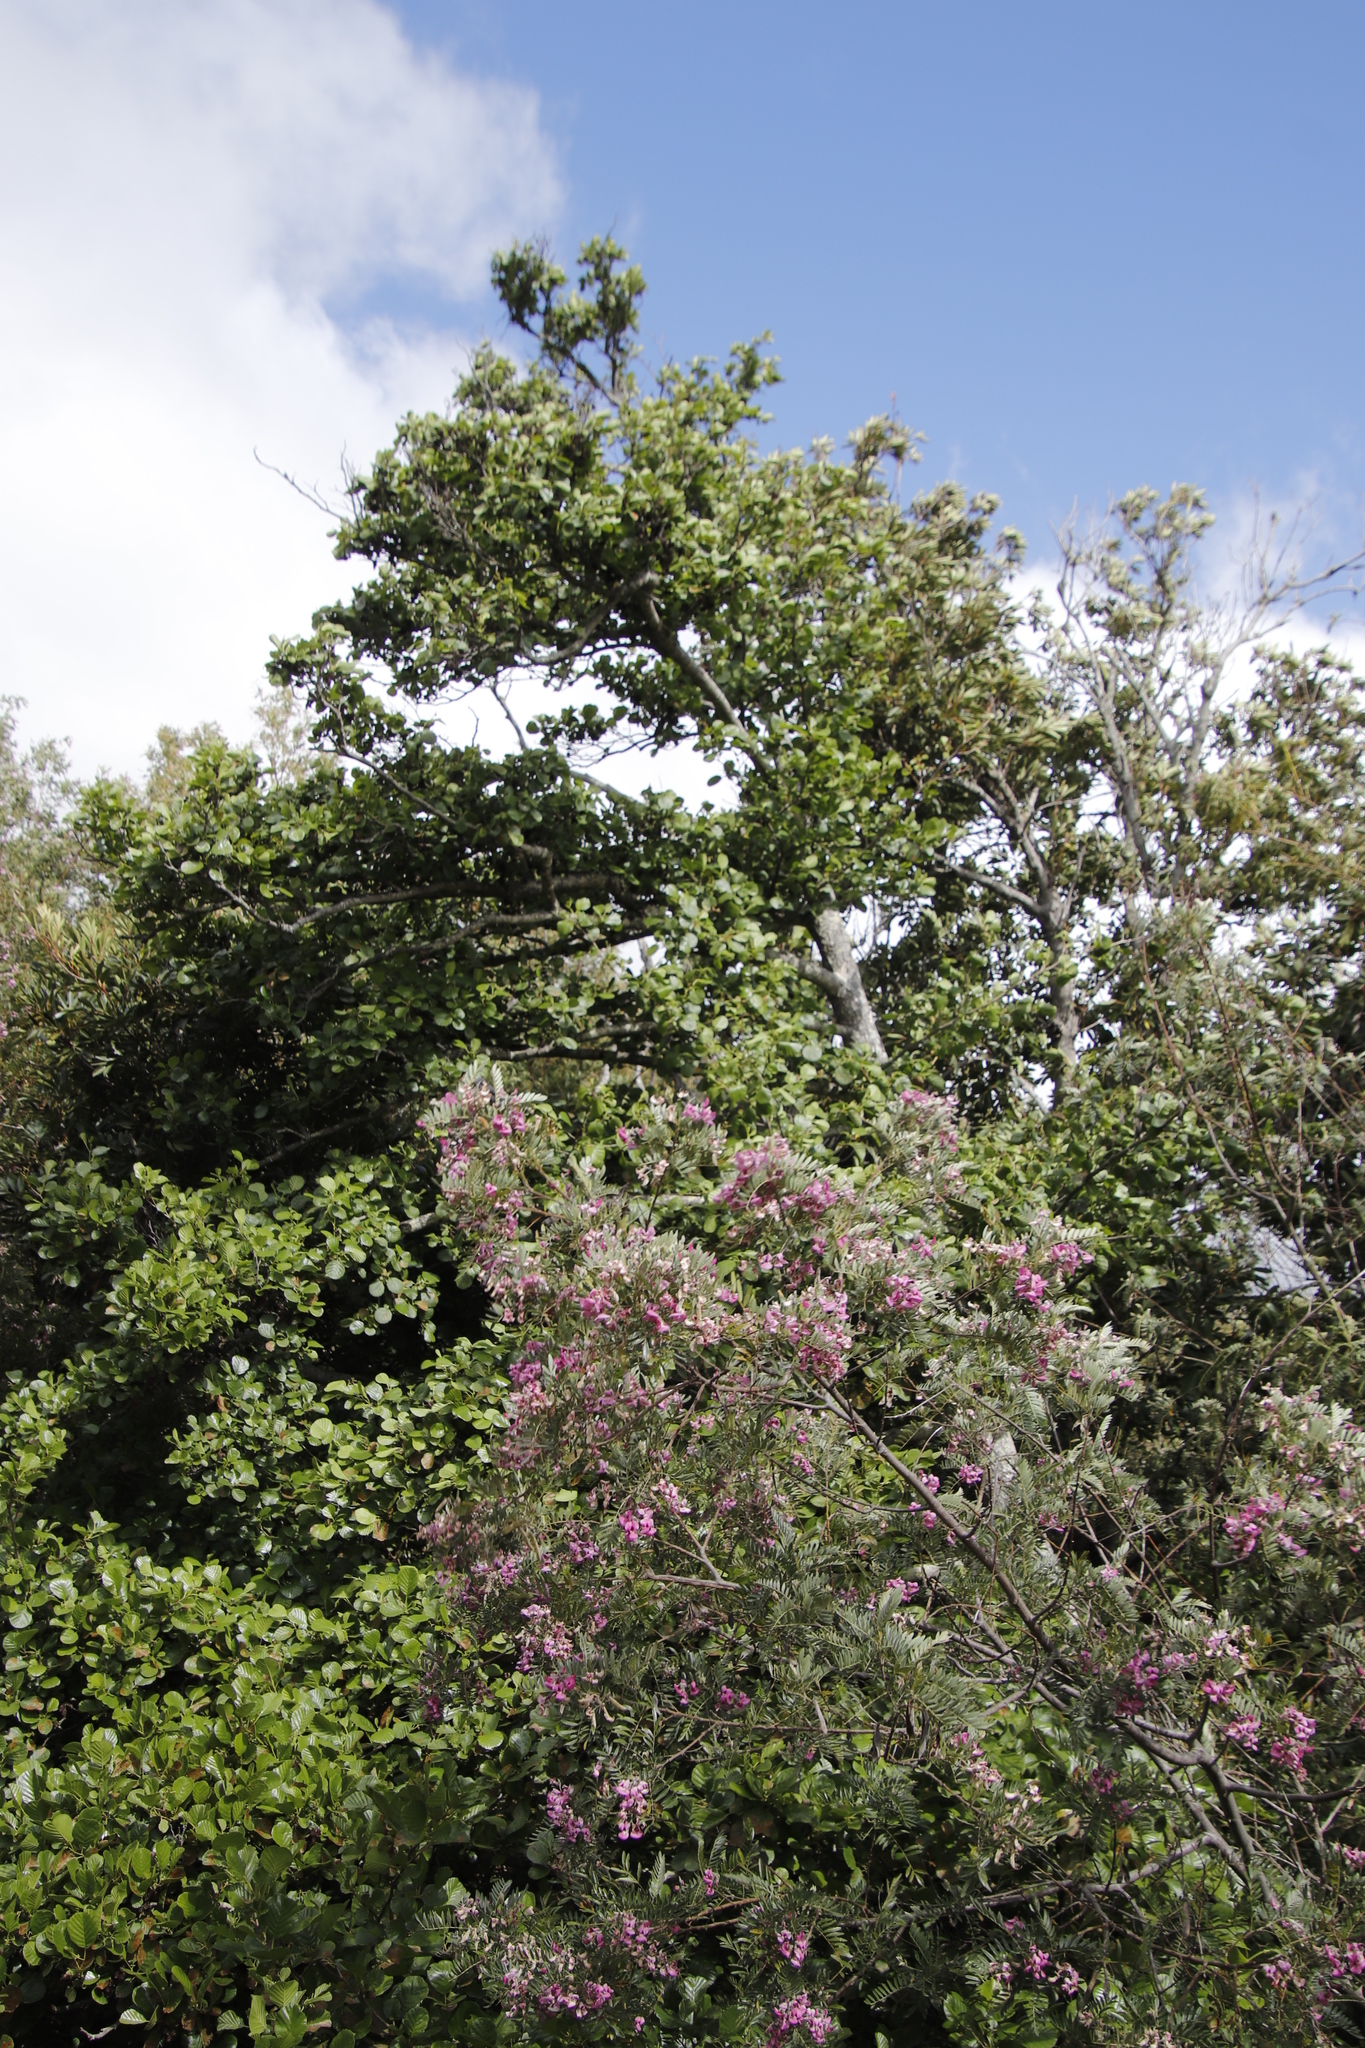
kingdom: Plantae
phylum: Tracheophyta
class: Magnoliopsida
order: Fagales
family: Betulaceae
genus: Alnus
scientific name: Alnus glutinosa
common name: Black alder
